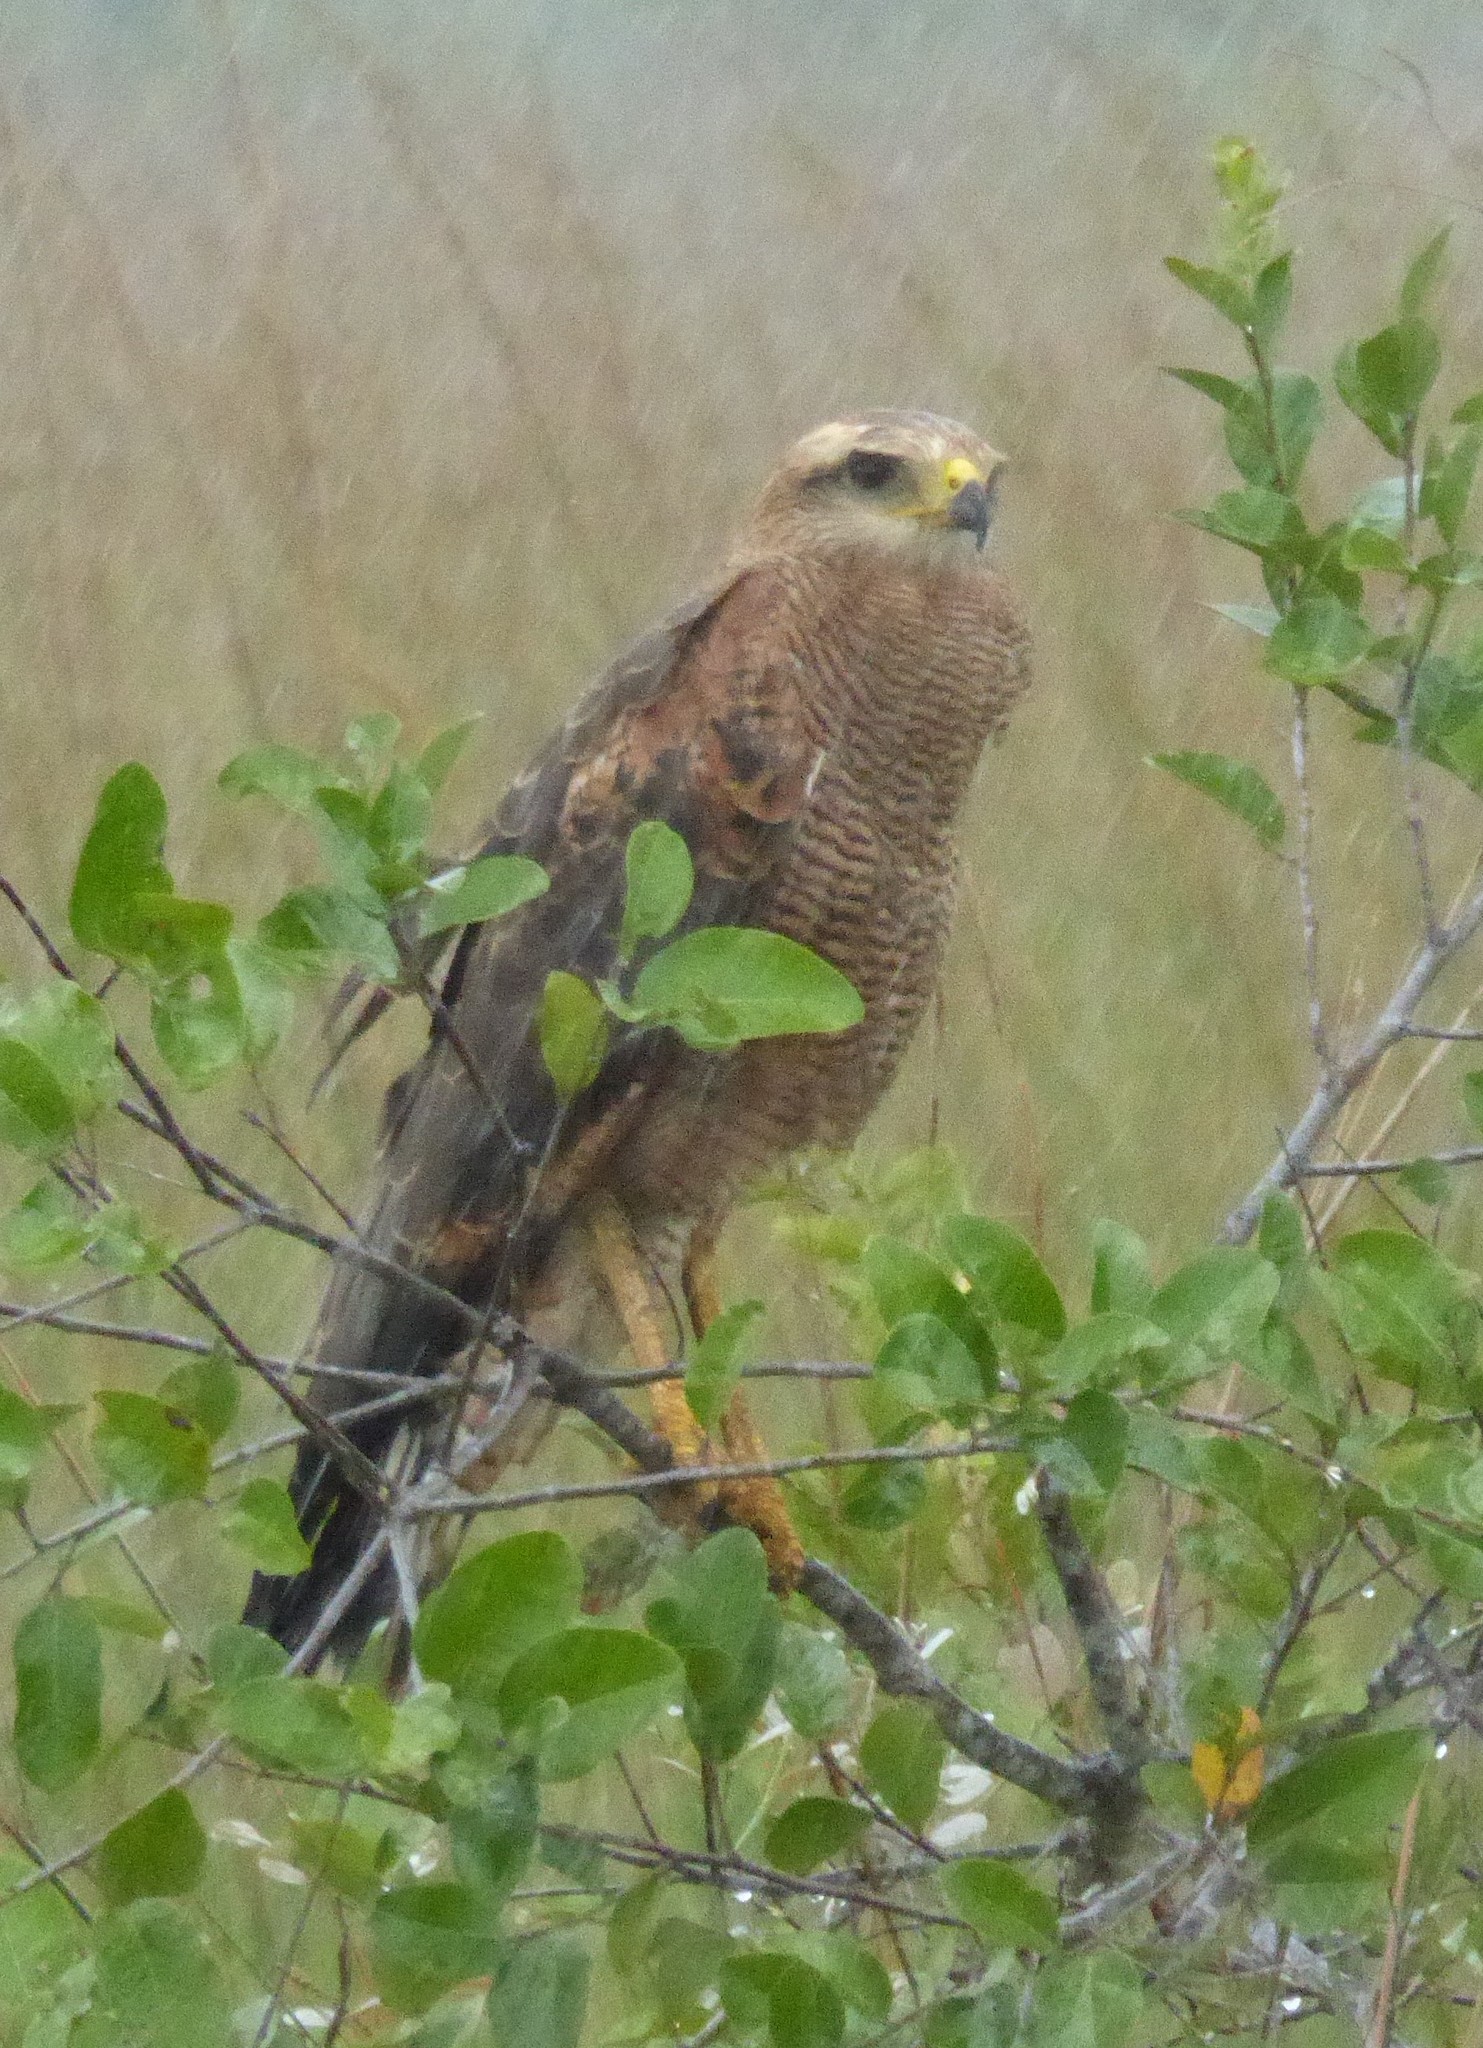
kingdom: Animalia
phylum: Chordata
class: Aves
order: Accipitriformes
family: Accipitridae
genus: Buteogallus
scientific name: Buteogallus meridionalis
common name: Savanna hawk
